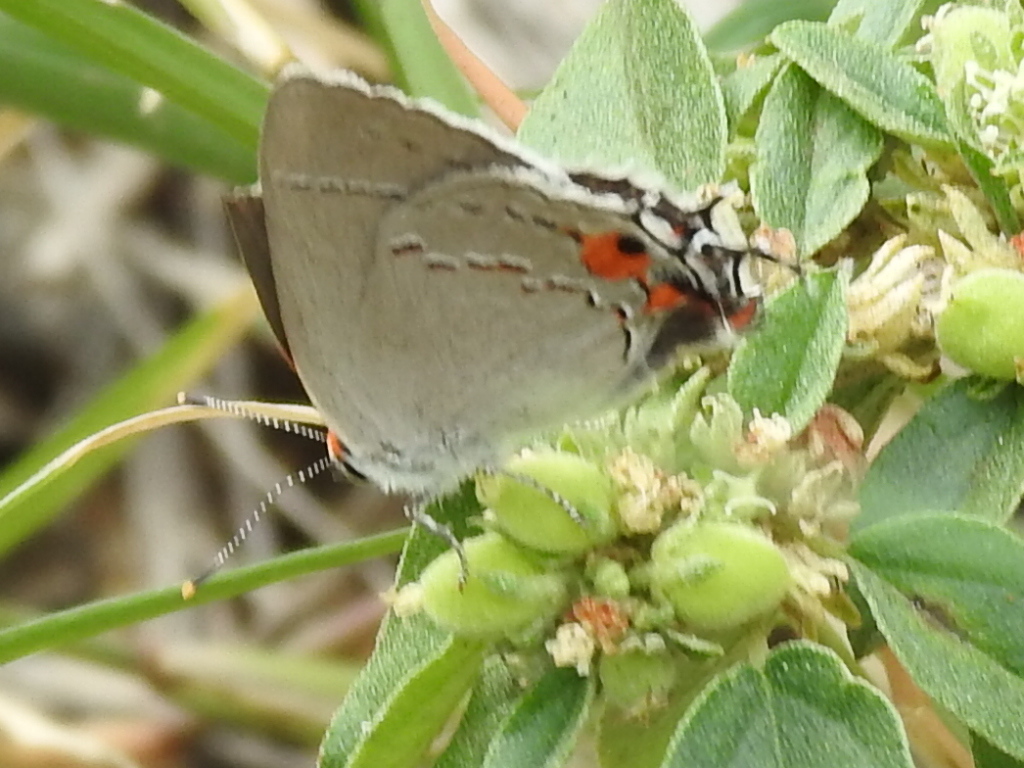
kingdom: Animalia
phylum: Arthropoda
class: Insecta
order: Lepidoptera
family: Lycaenidae
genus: Strymon
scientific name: Strymon melinus
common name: Gray hairstreak
